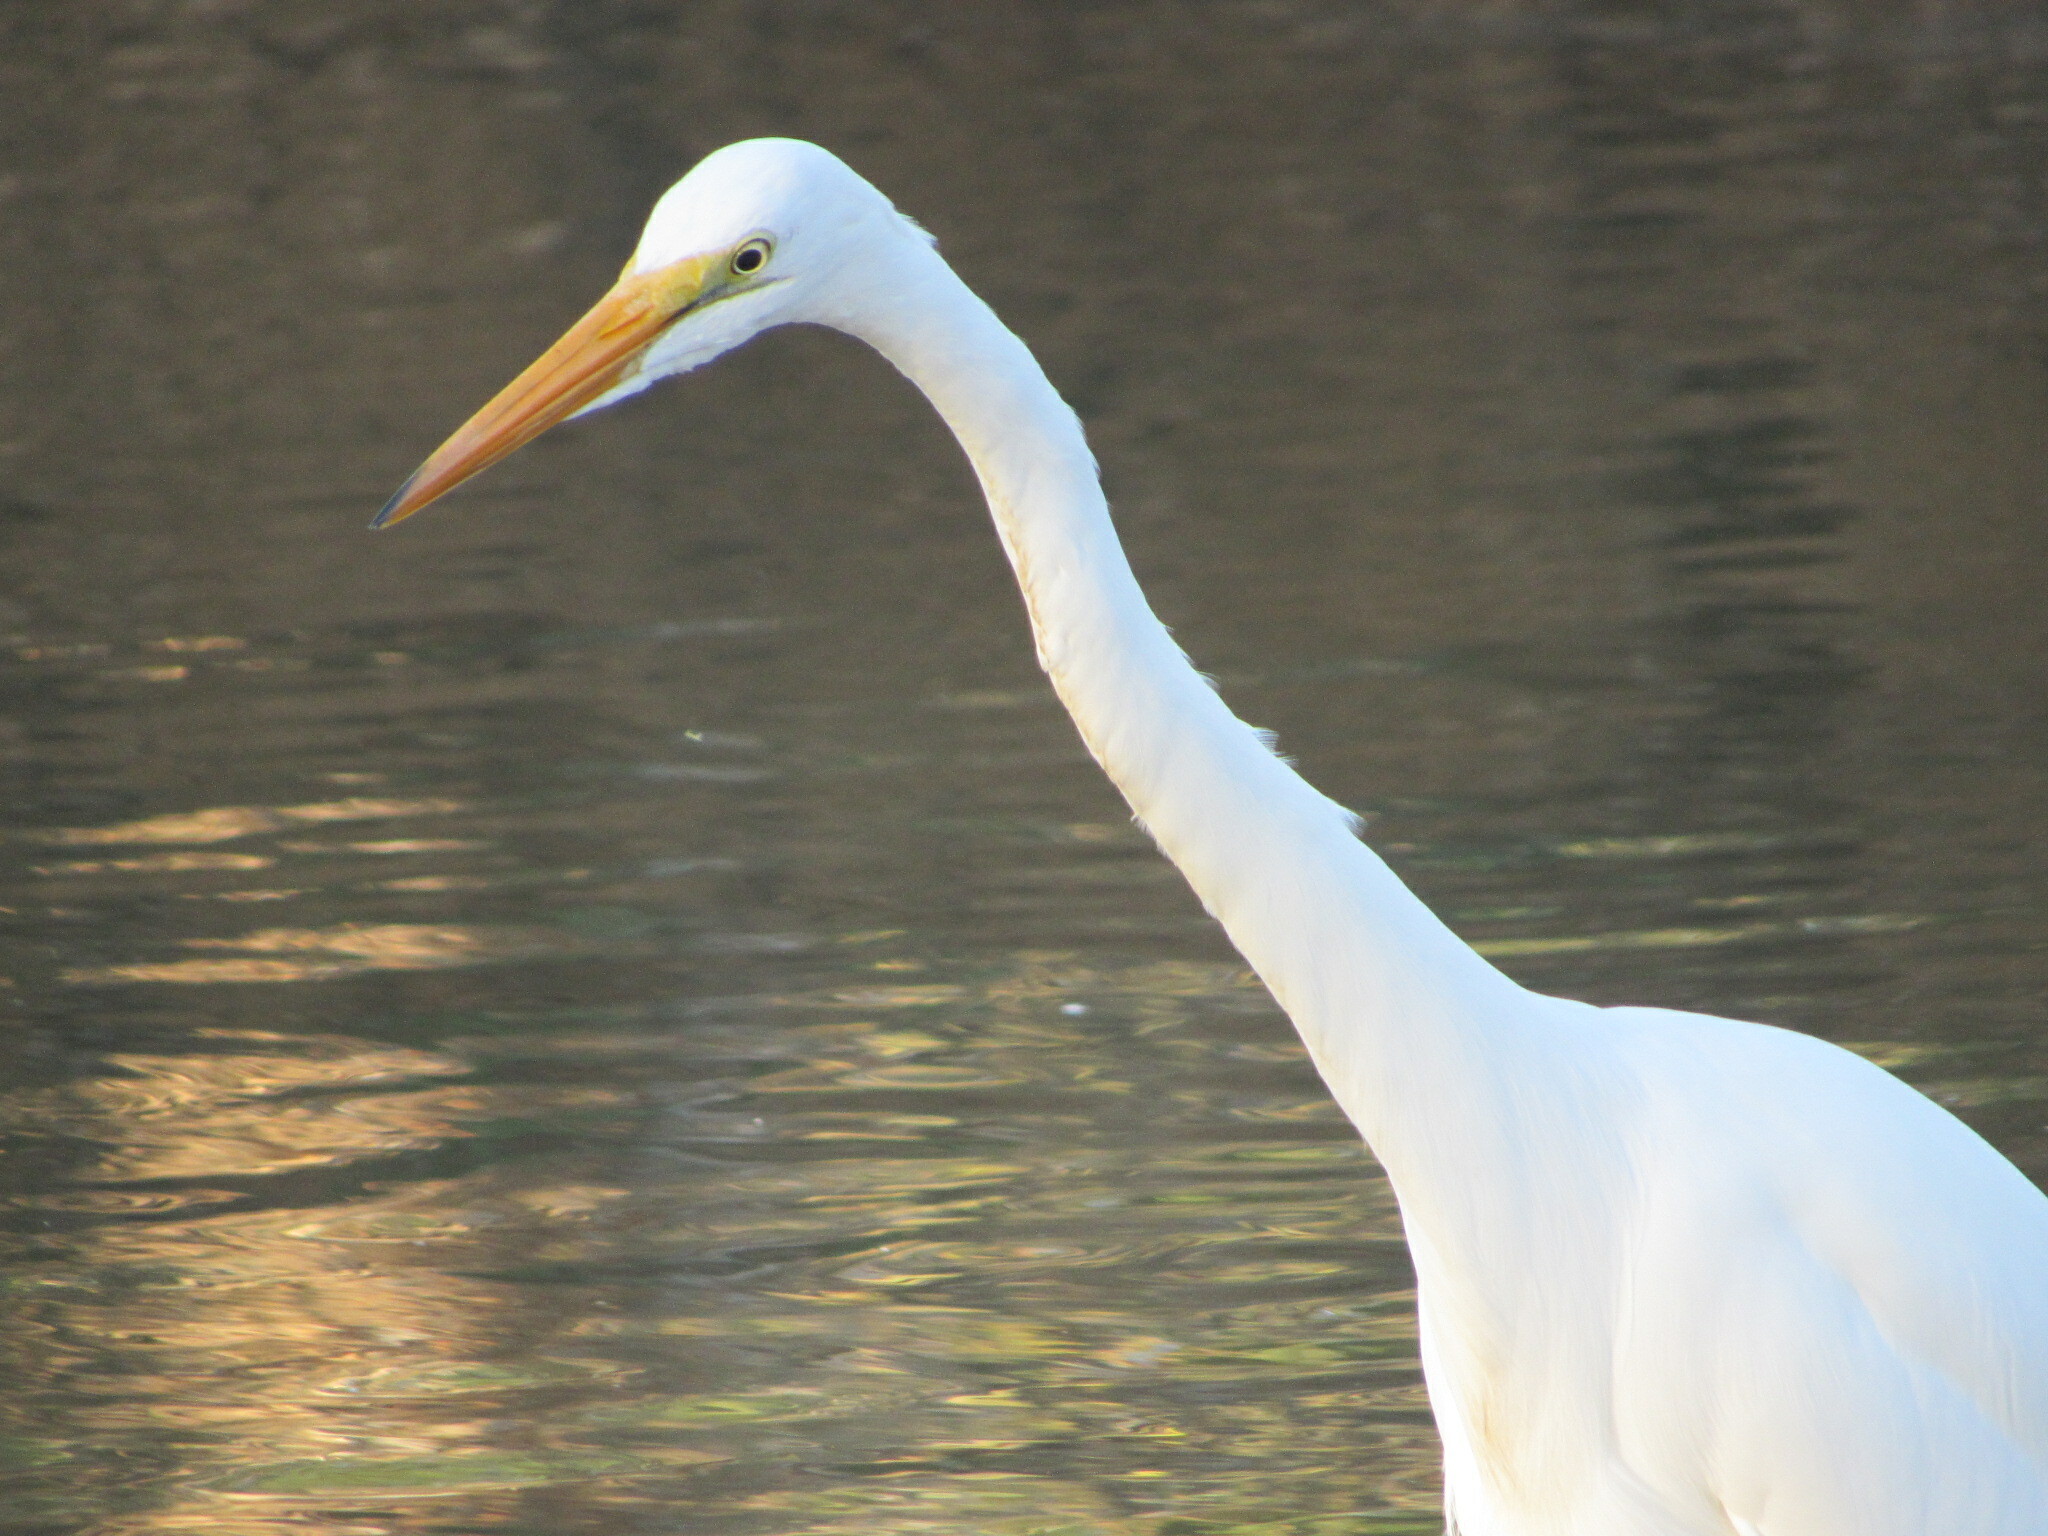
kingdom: Animalia
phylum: Chordata
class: Aves
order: Pelecaniformes
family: Ardeidae
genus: Ardea
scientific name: Ardea alba
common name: Great egret
